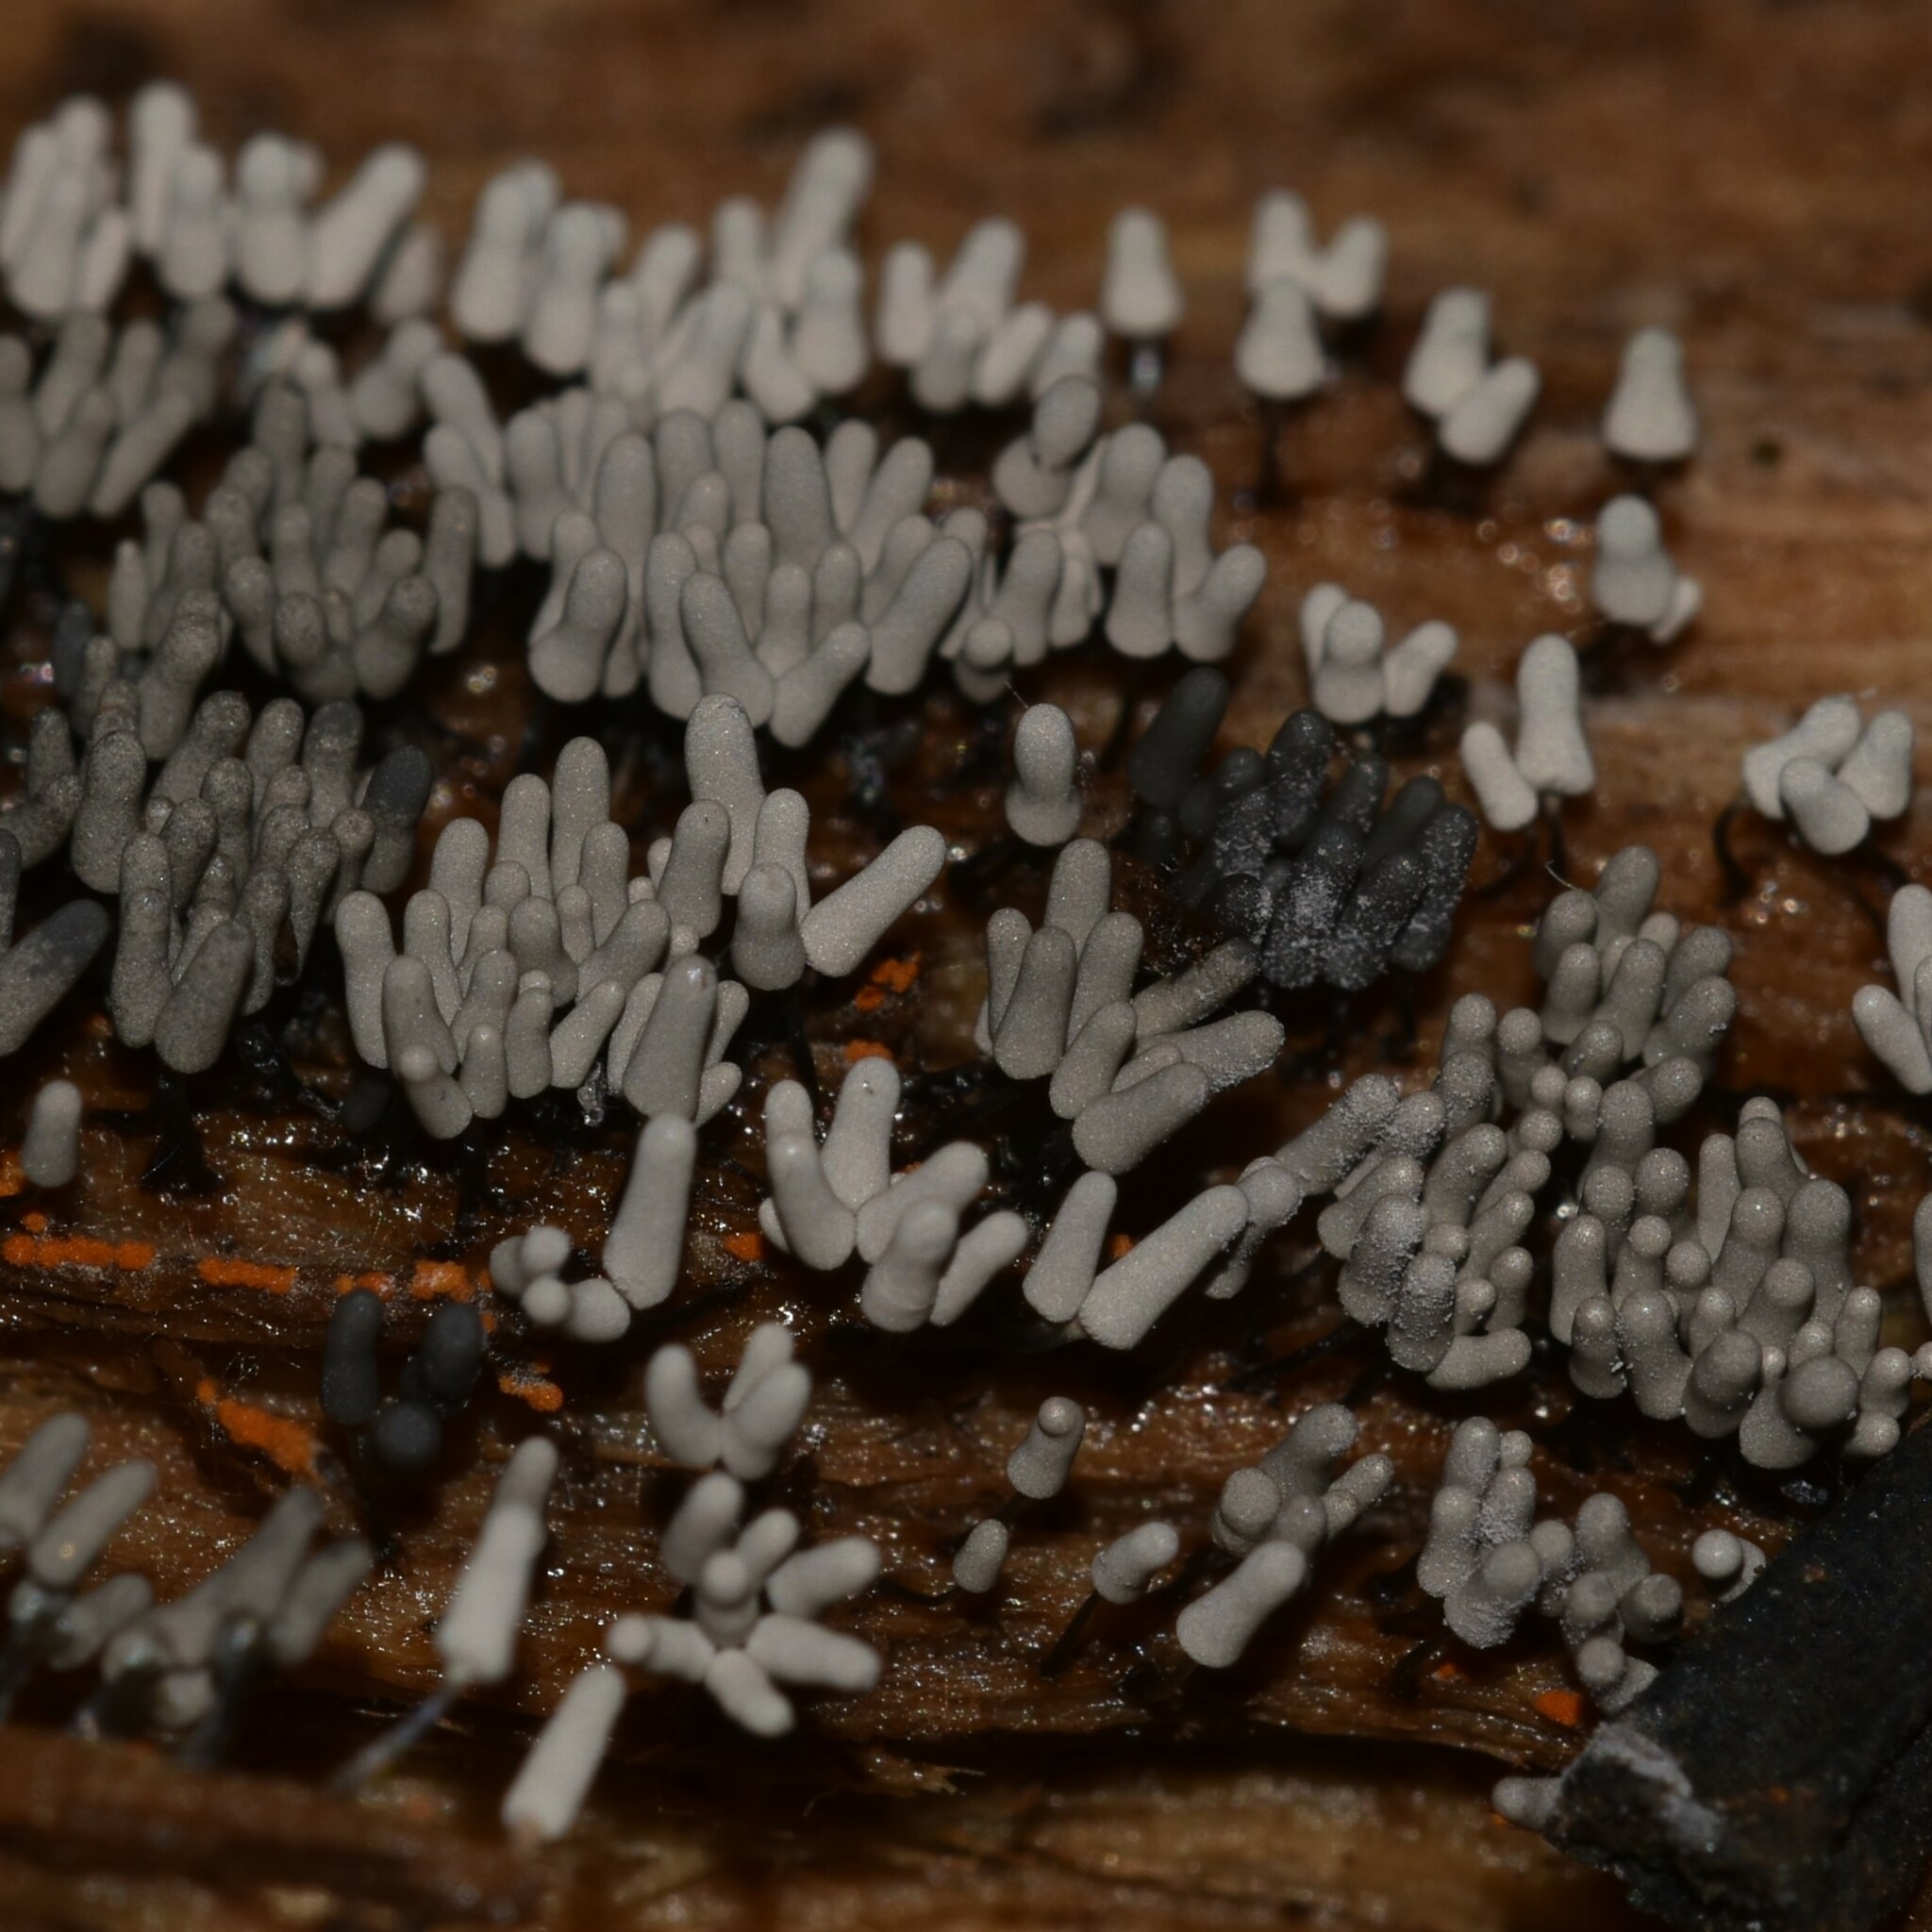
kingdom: Protozoa
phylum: Mycetozoa
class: Myxomycetes
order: Trichiales
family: Arcyriaceae
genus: Arcyria
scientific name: Arcyria cinerea
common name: White carnival candy slime mold
